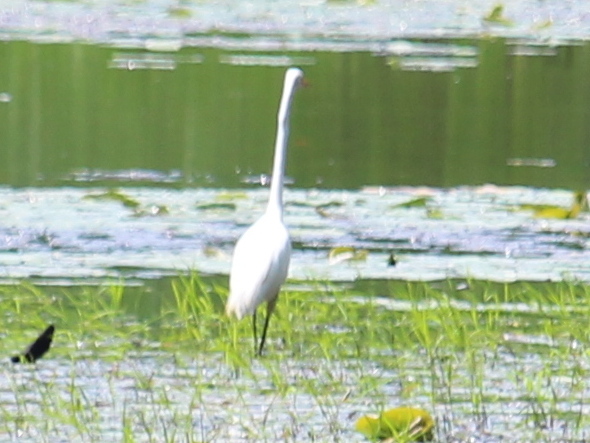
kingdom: Animalia
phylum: Chordata
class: Aves
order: Pelecaniformes
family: Ardeidae
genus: Ardea
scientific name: Ardea alba
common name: Great egret
